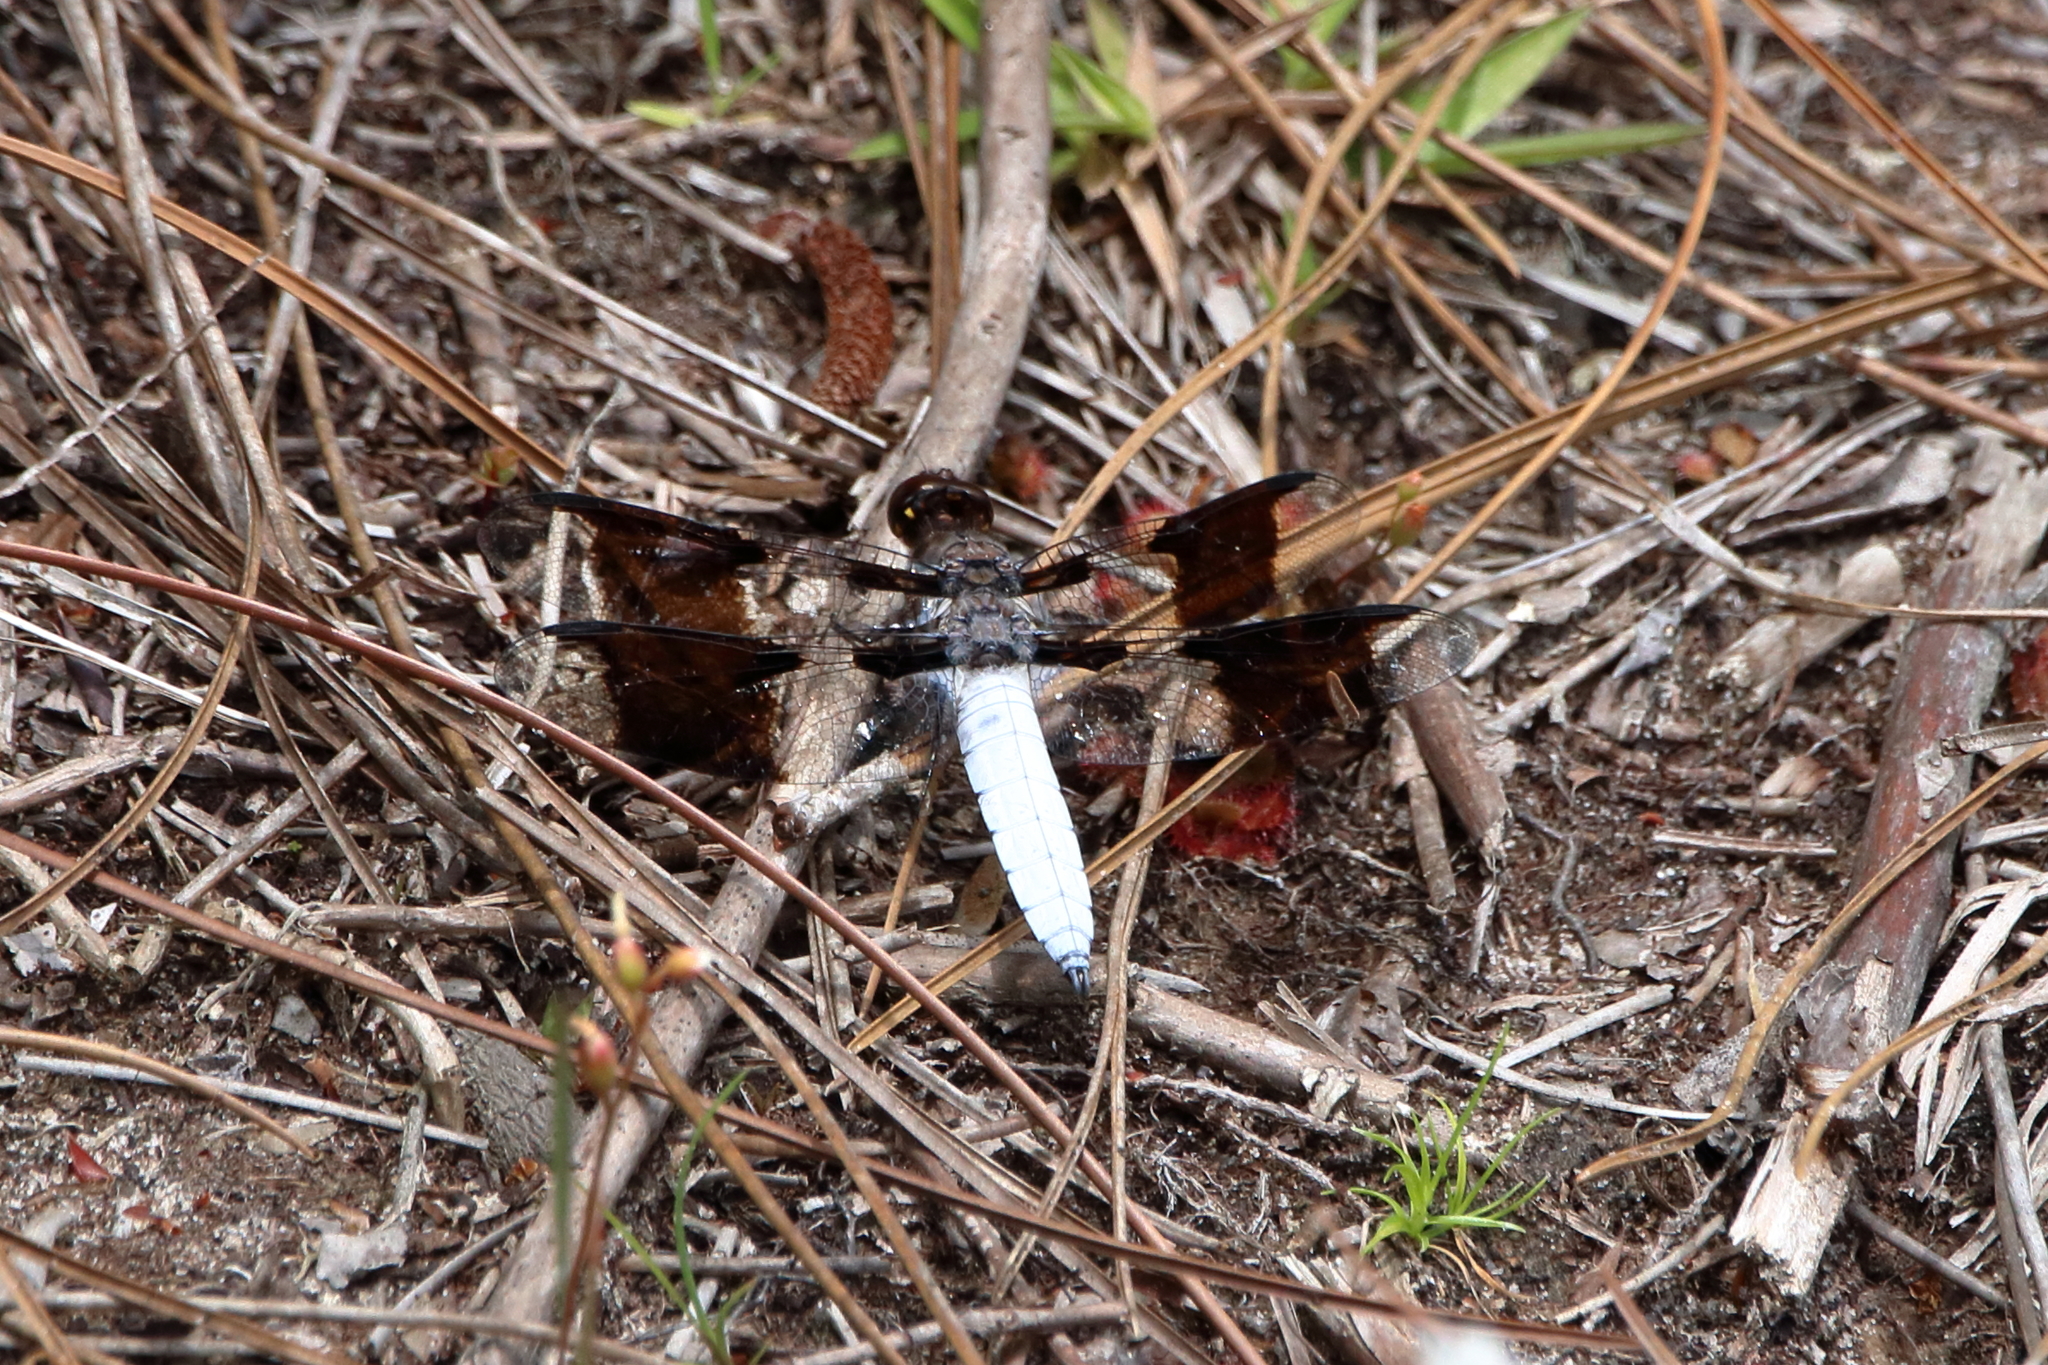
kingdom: Animalia
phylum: Arthropoda
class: Insecta
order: Odonata
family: Libellulidae
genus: Plathemis
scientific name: Plathemis lydia
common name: Common whitetail
